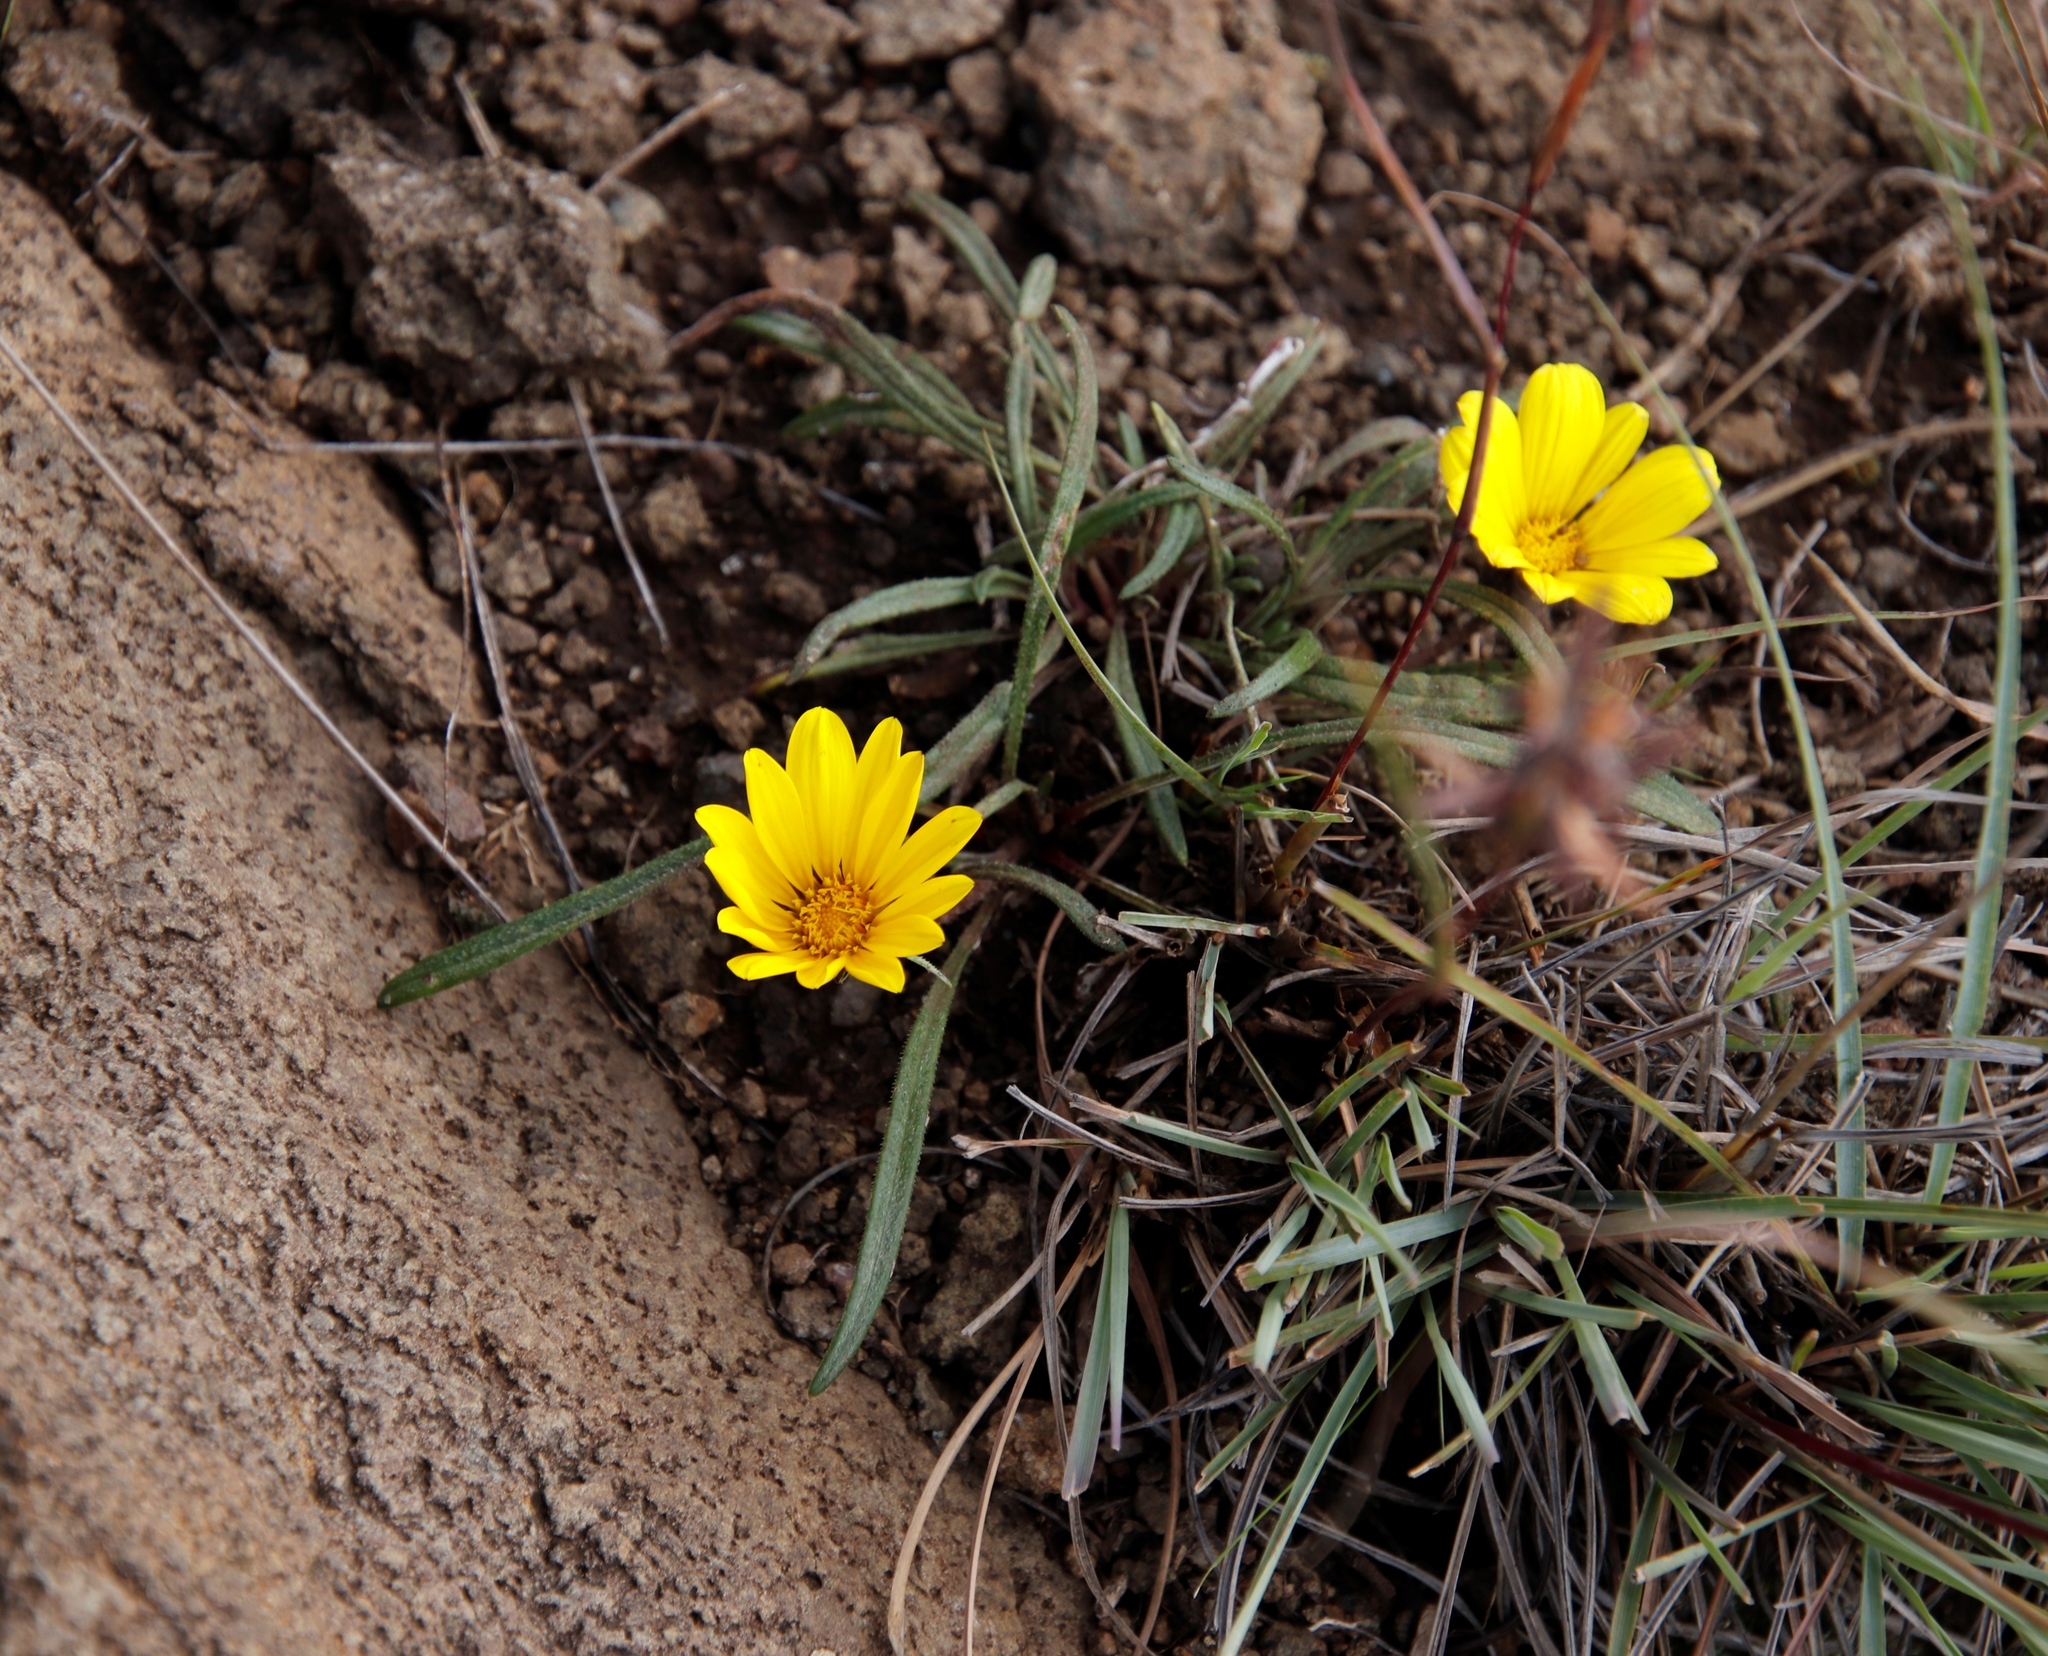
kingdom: Plantae
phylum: Tracheophyta
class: Magnoliopsida
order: Asterales
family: Asteraceae
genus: Gazania
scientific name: Gazania krebsiana
